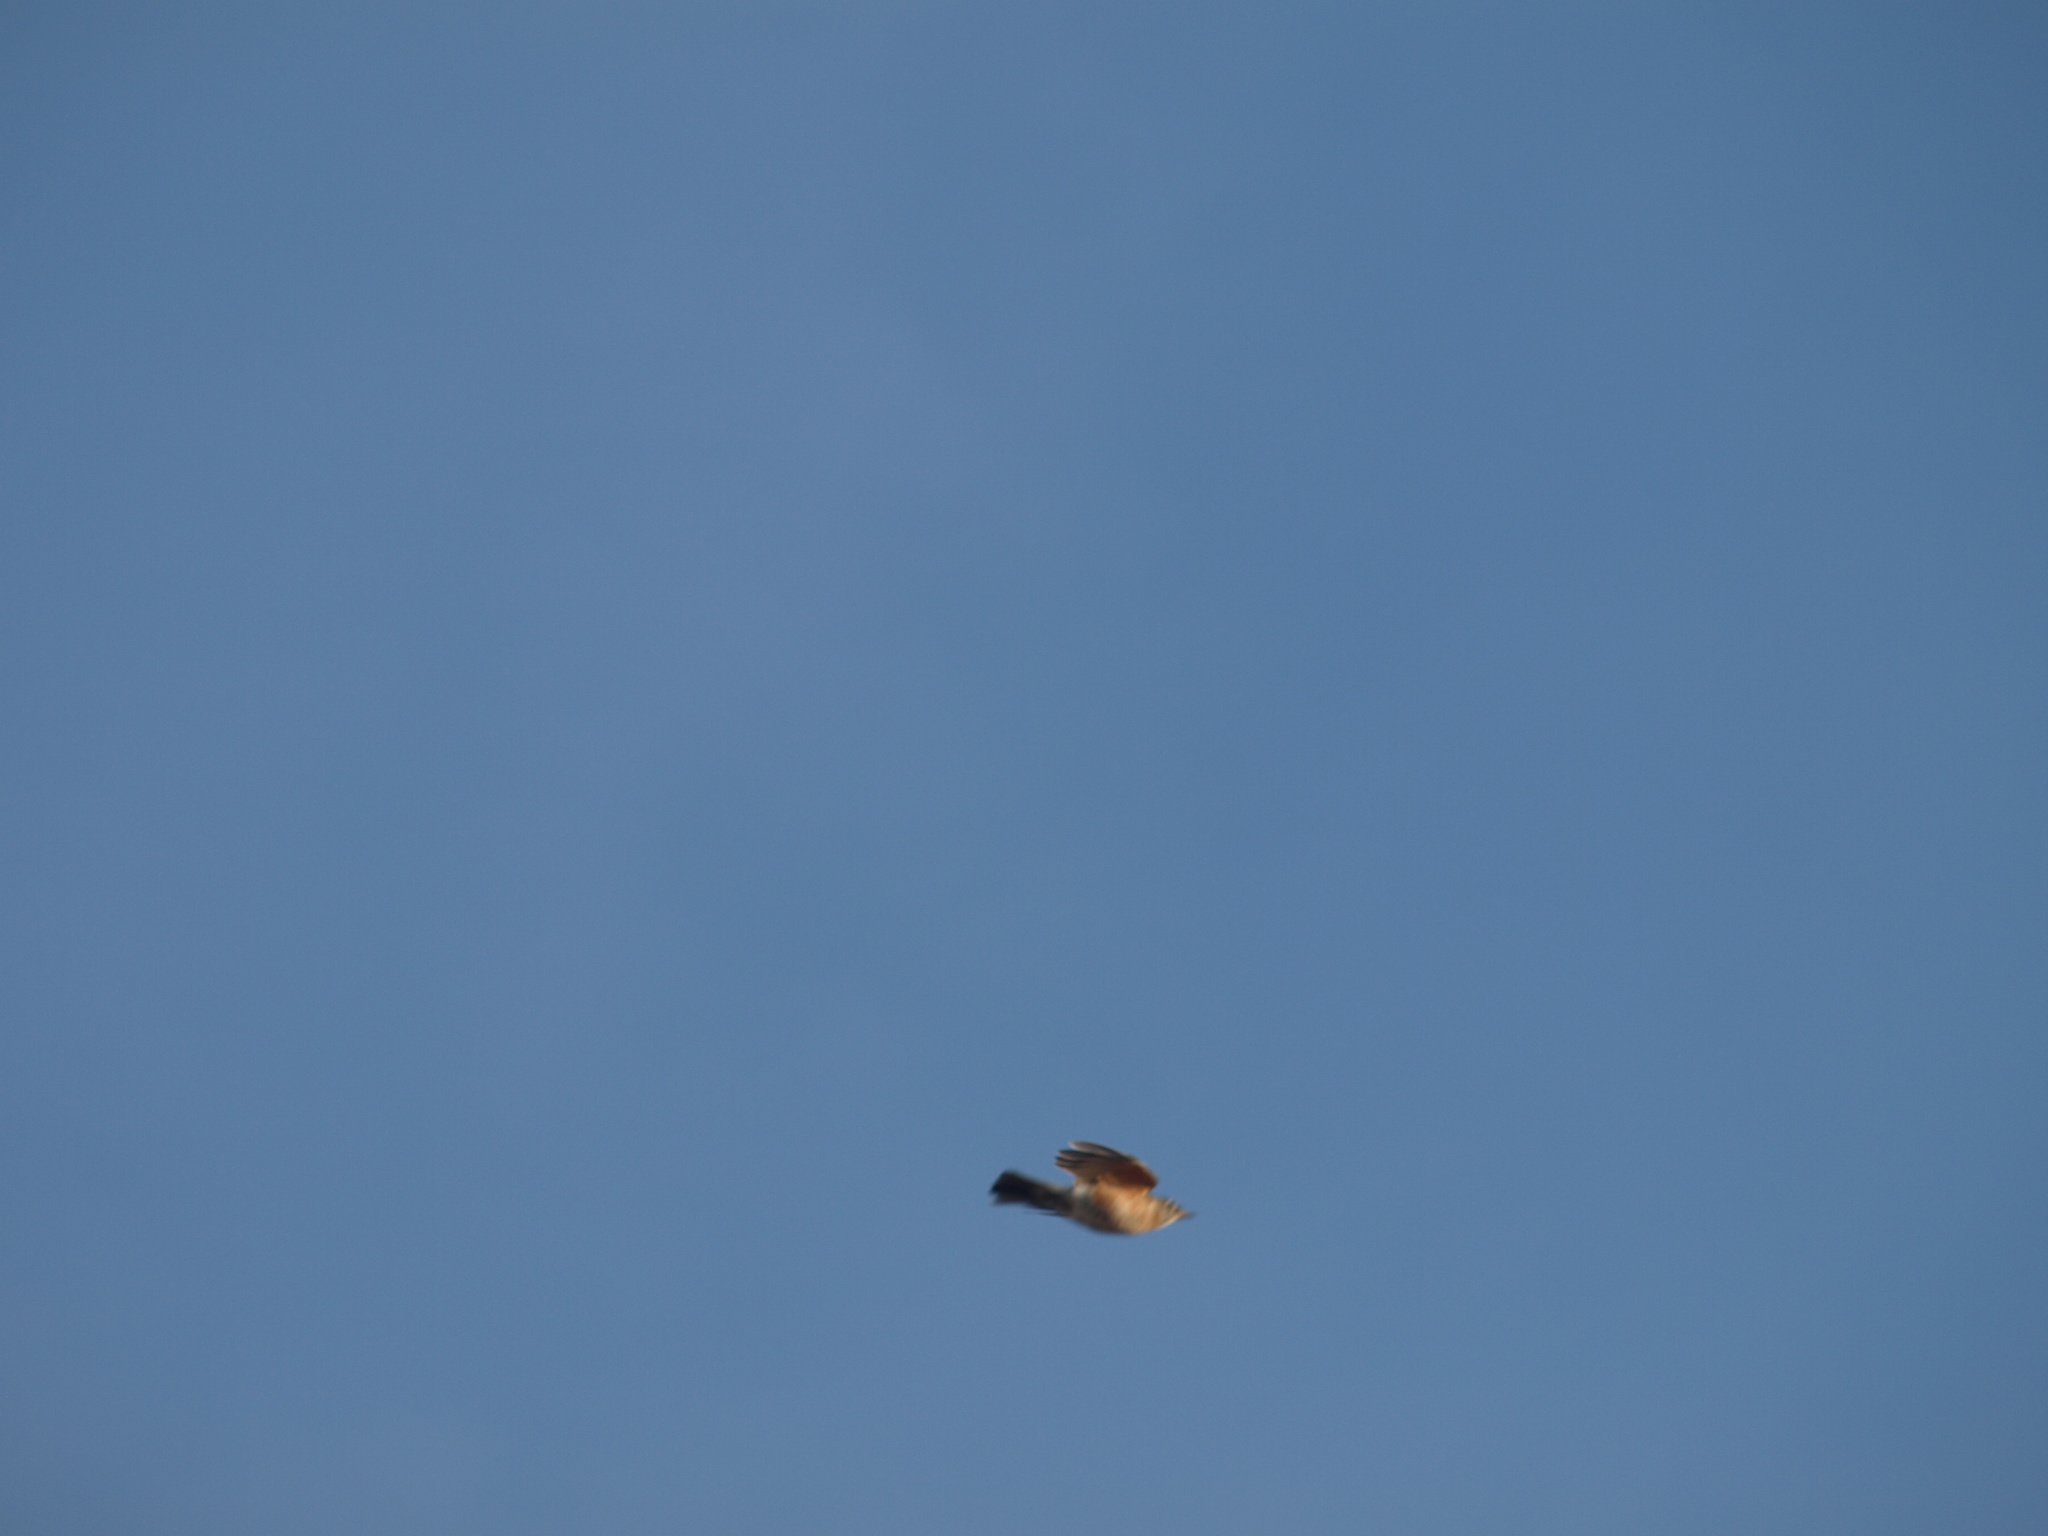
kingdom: Animalia
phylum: Chordata
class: Aves
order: Passeriformes
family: Turdidae
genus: Turdus
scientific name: Turdus migratorius
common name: American robin
